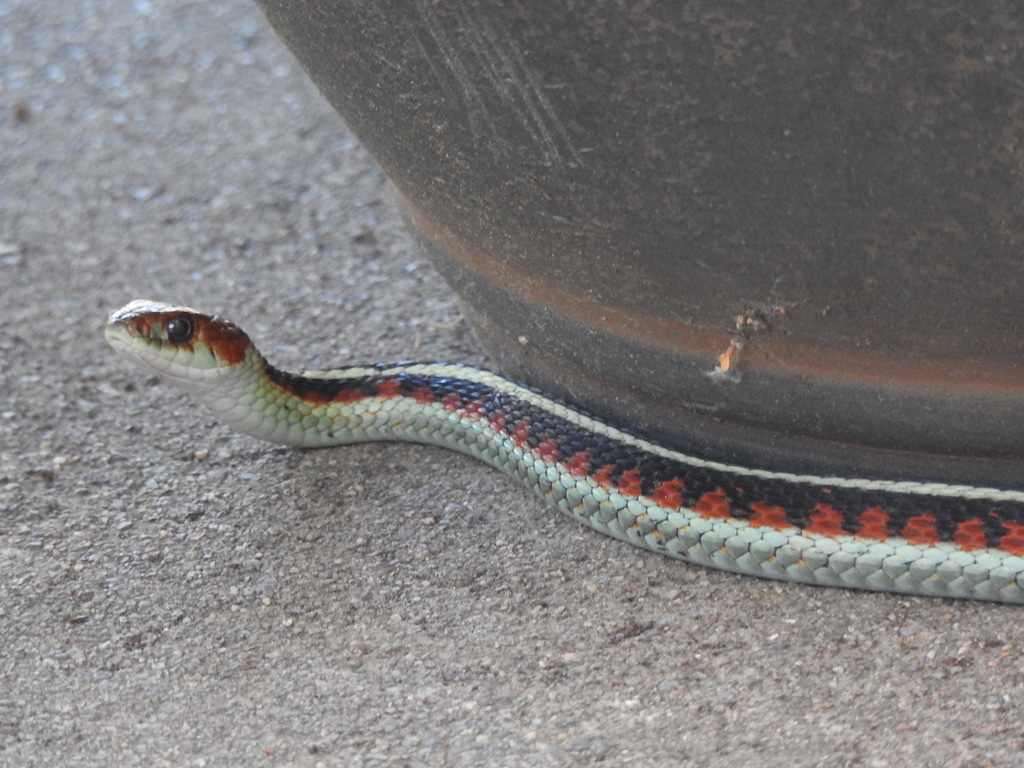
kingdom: Animalia
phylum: Chordata
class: Squamata
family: Colubridae
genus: Thamnophis
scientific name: Thamnophis sirtalis
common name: Common garter snake
